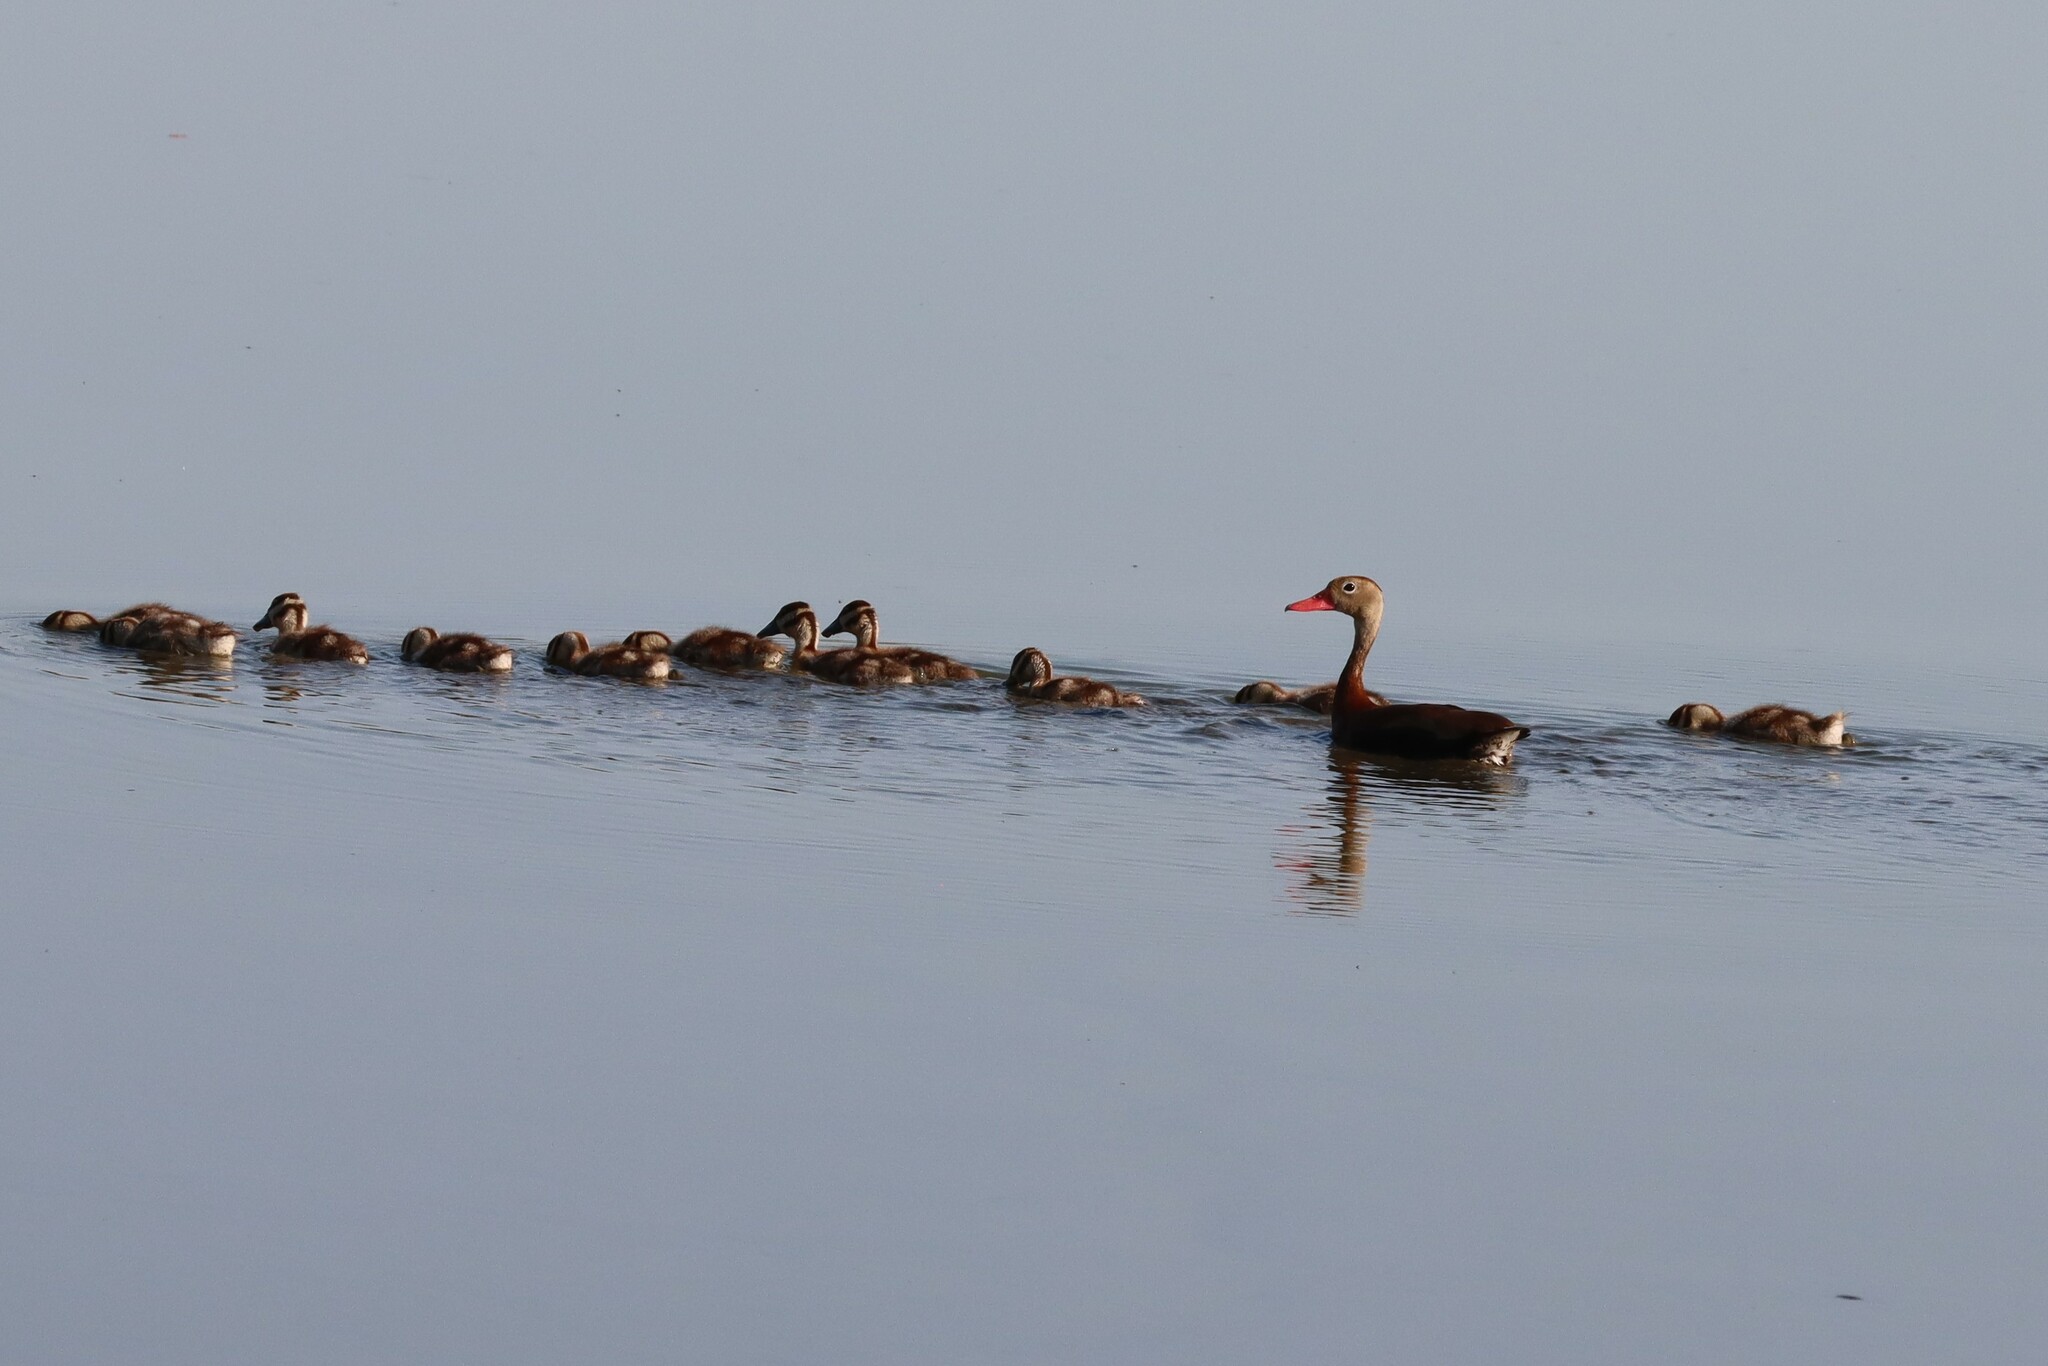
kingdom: Animalia
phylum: Chordata
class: Aves
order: Anseriformes
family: Anatidae
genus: Dendrocygna
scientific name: Dendrocygna autumnalis
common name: Black-bellied whistling duck
